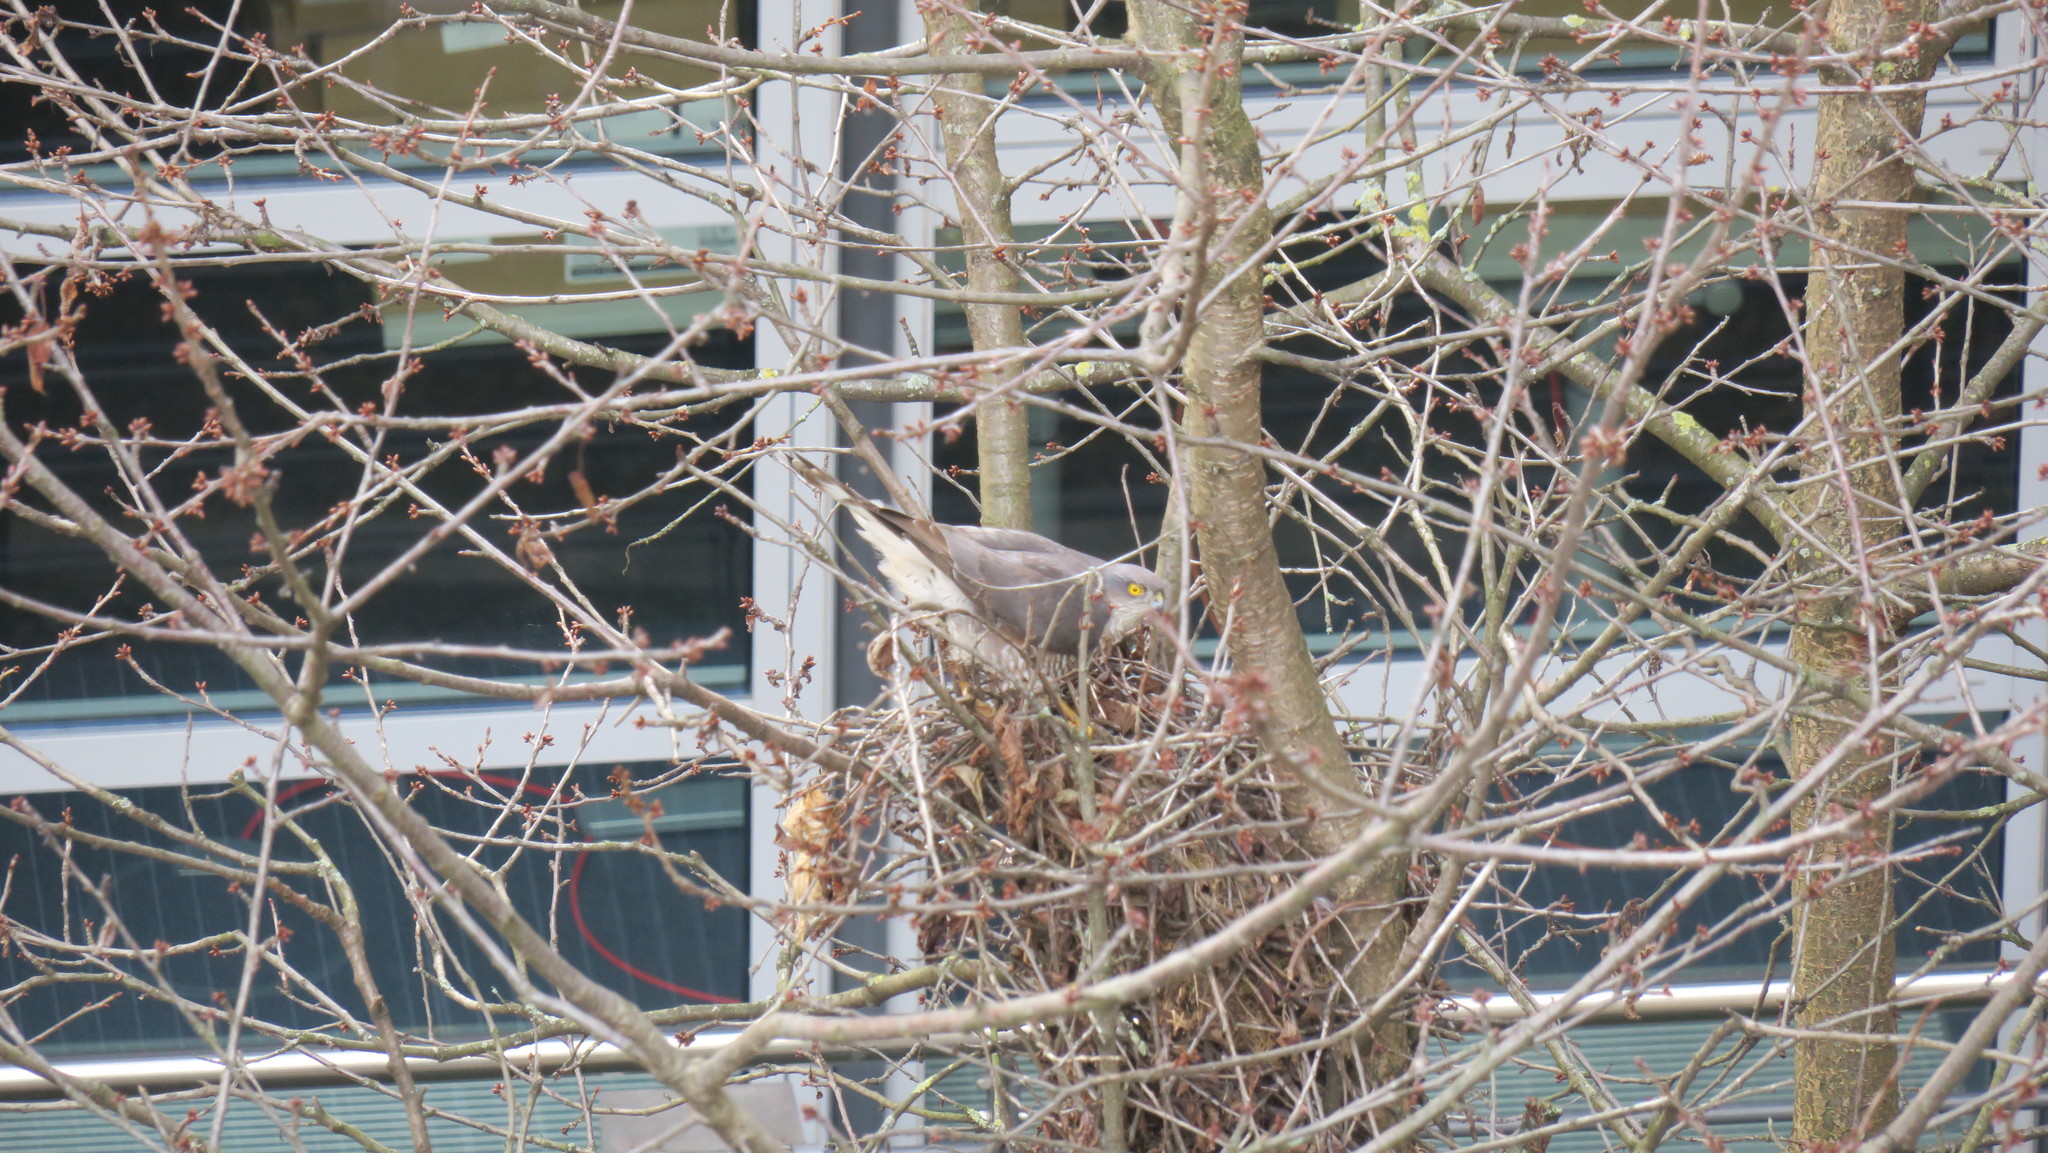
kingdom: Animalia
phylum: Chordata
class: Aves
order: Accipitriformes
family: Accipitridae
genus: Accipiter
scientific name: Accipiter nisus
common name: Eurasian sparrowhawk
